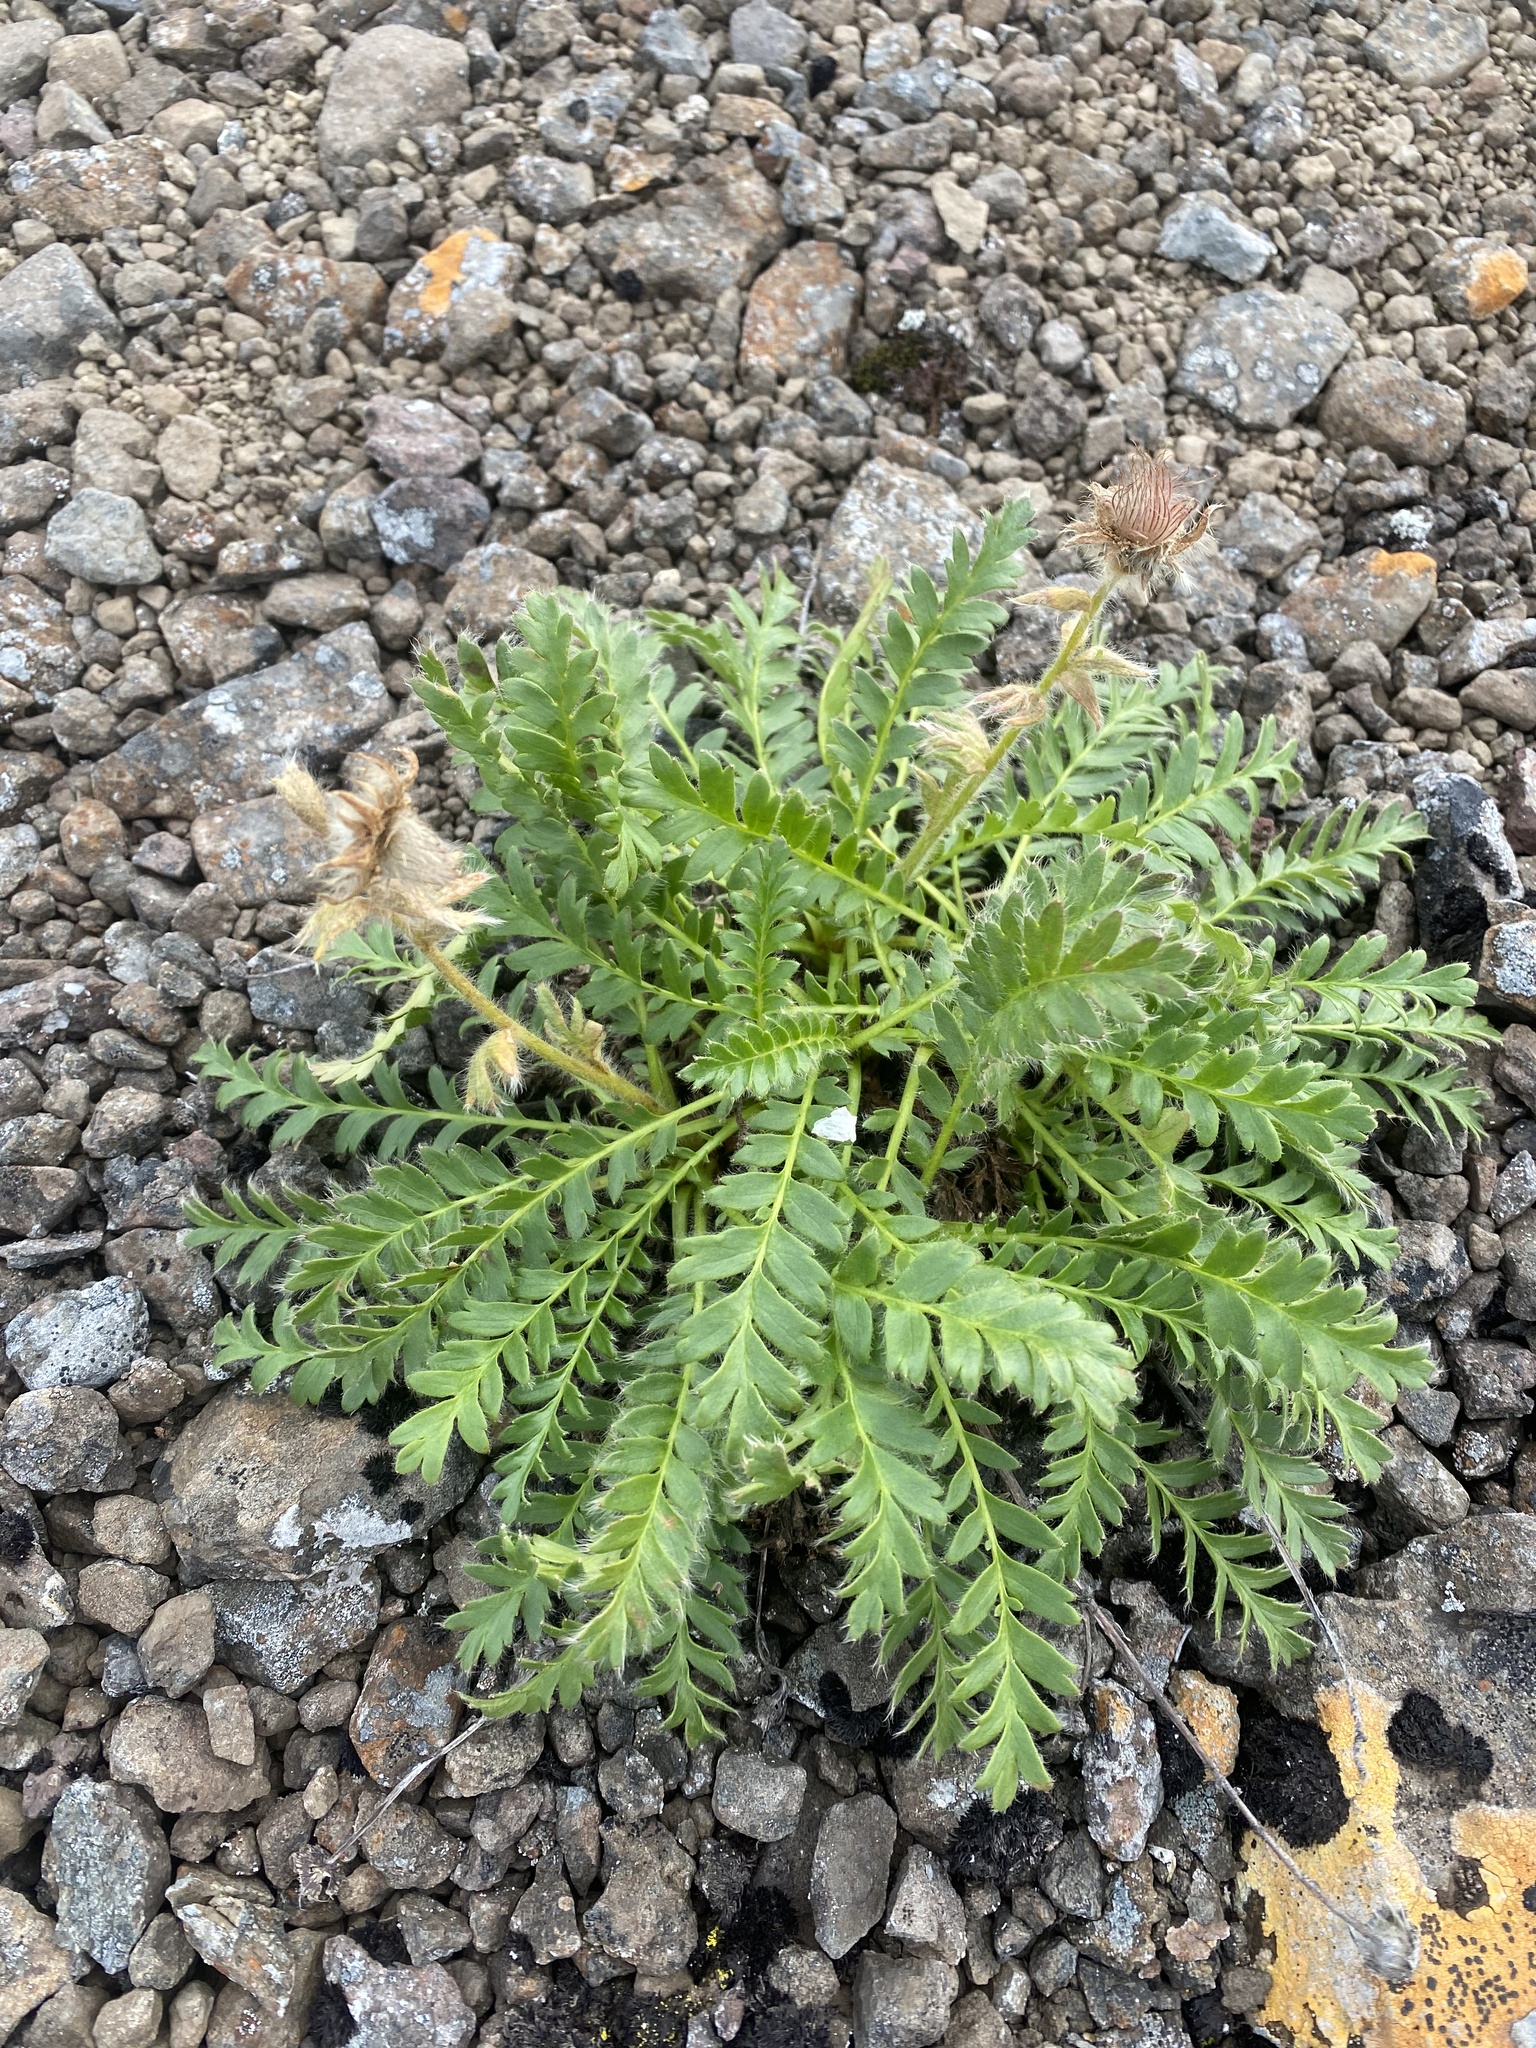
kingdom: Plantae
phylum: Tracheophyta
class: Magnoliopsida
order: Rosales
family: Rosaceae
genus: Geum
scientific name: Geum glaciale
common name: Glacier avens
